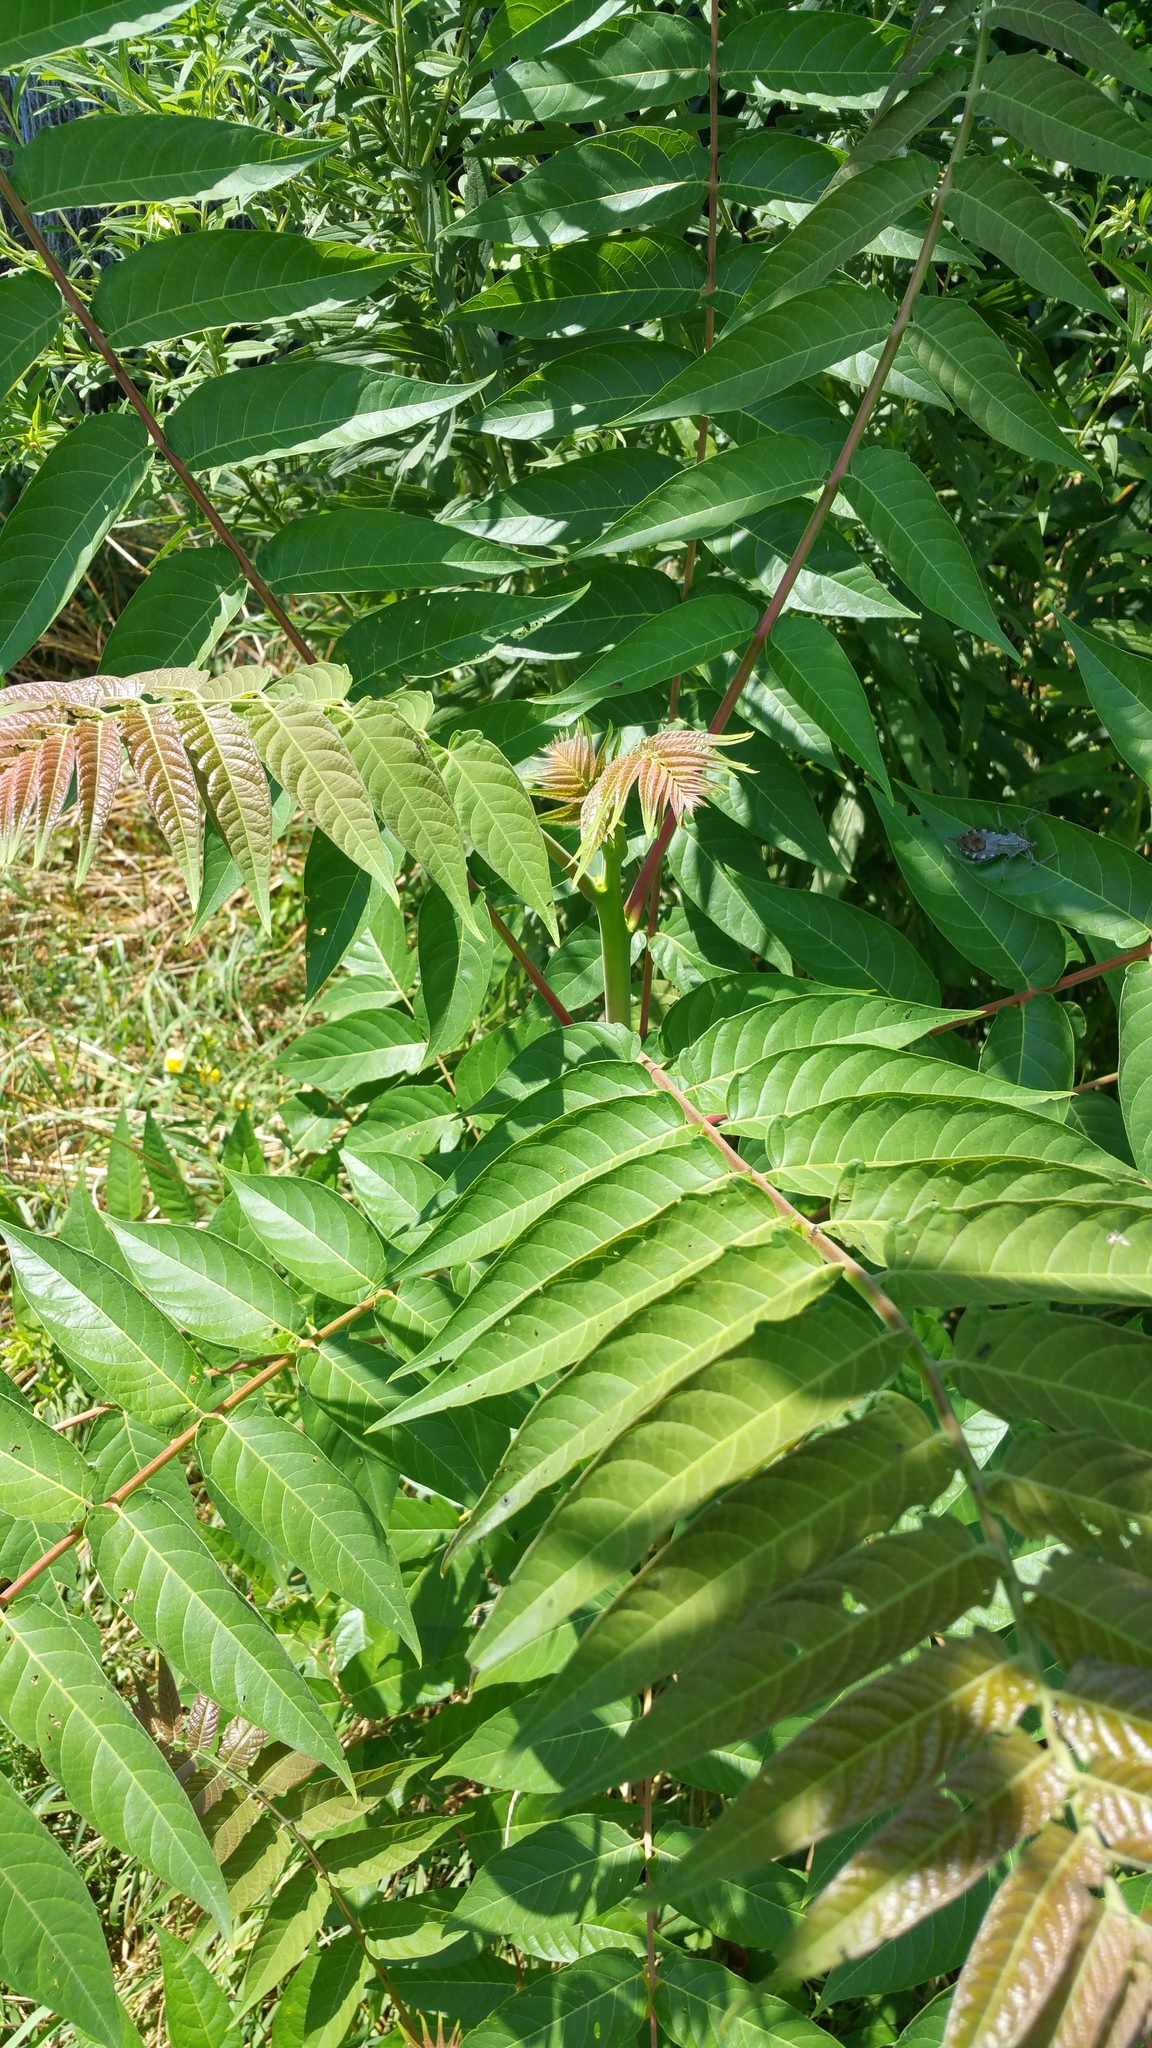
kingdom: Plantae
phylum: Tracheophyta
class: Magnoliopsida
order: Sapindales
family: Simaroubaceae
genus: Ailanthus
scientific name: Ailanthus altissima
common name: Tree-of-heaven
